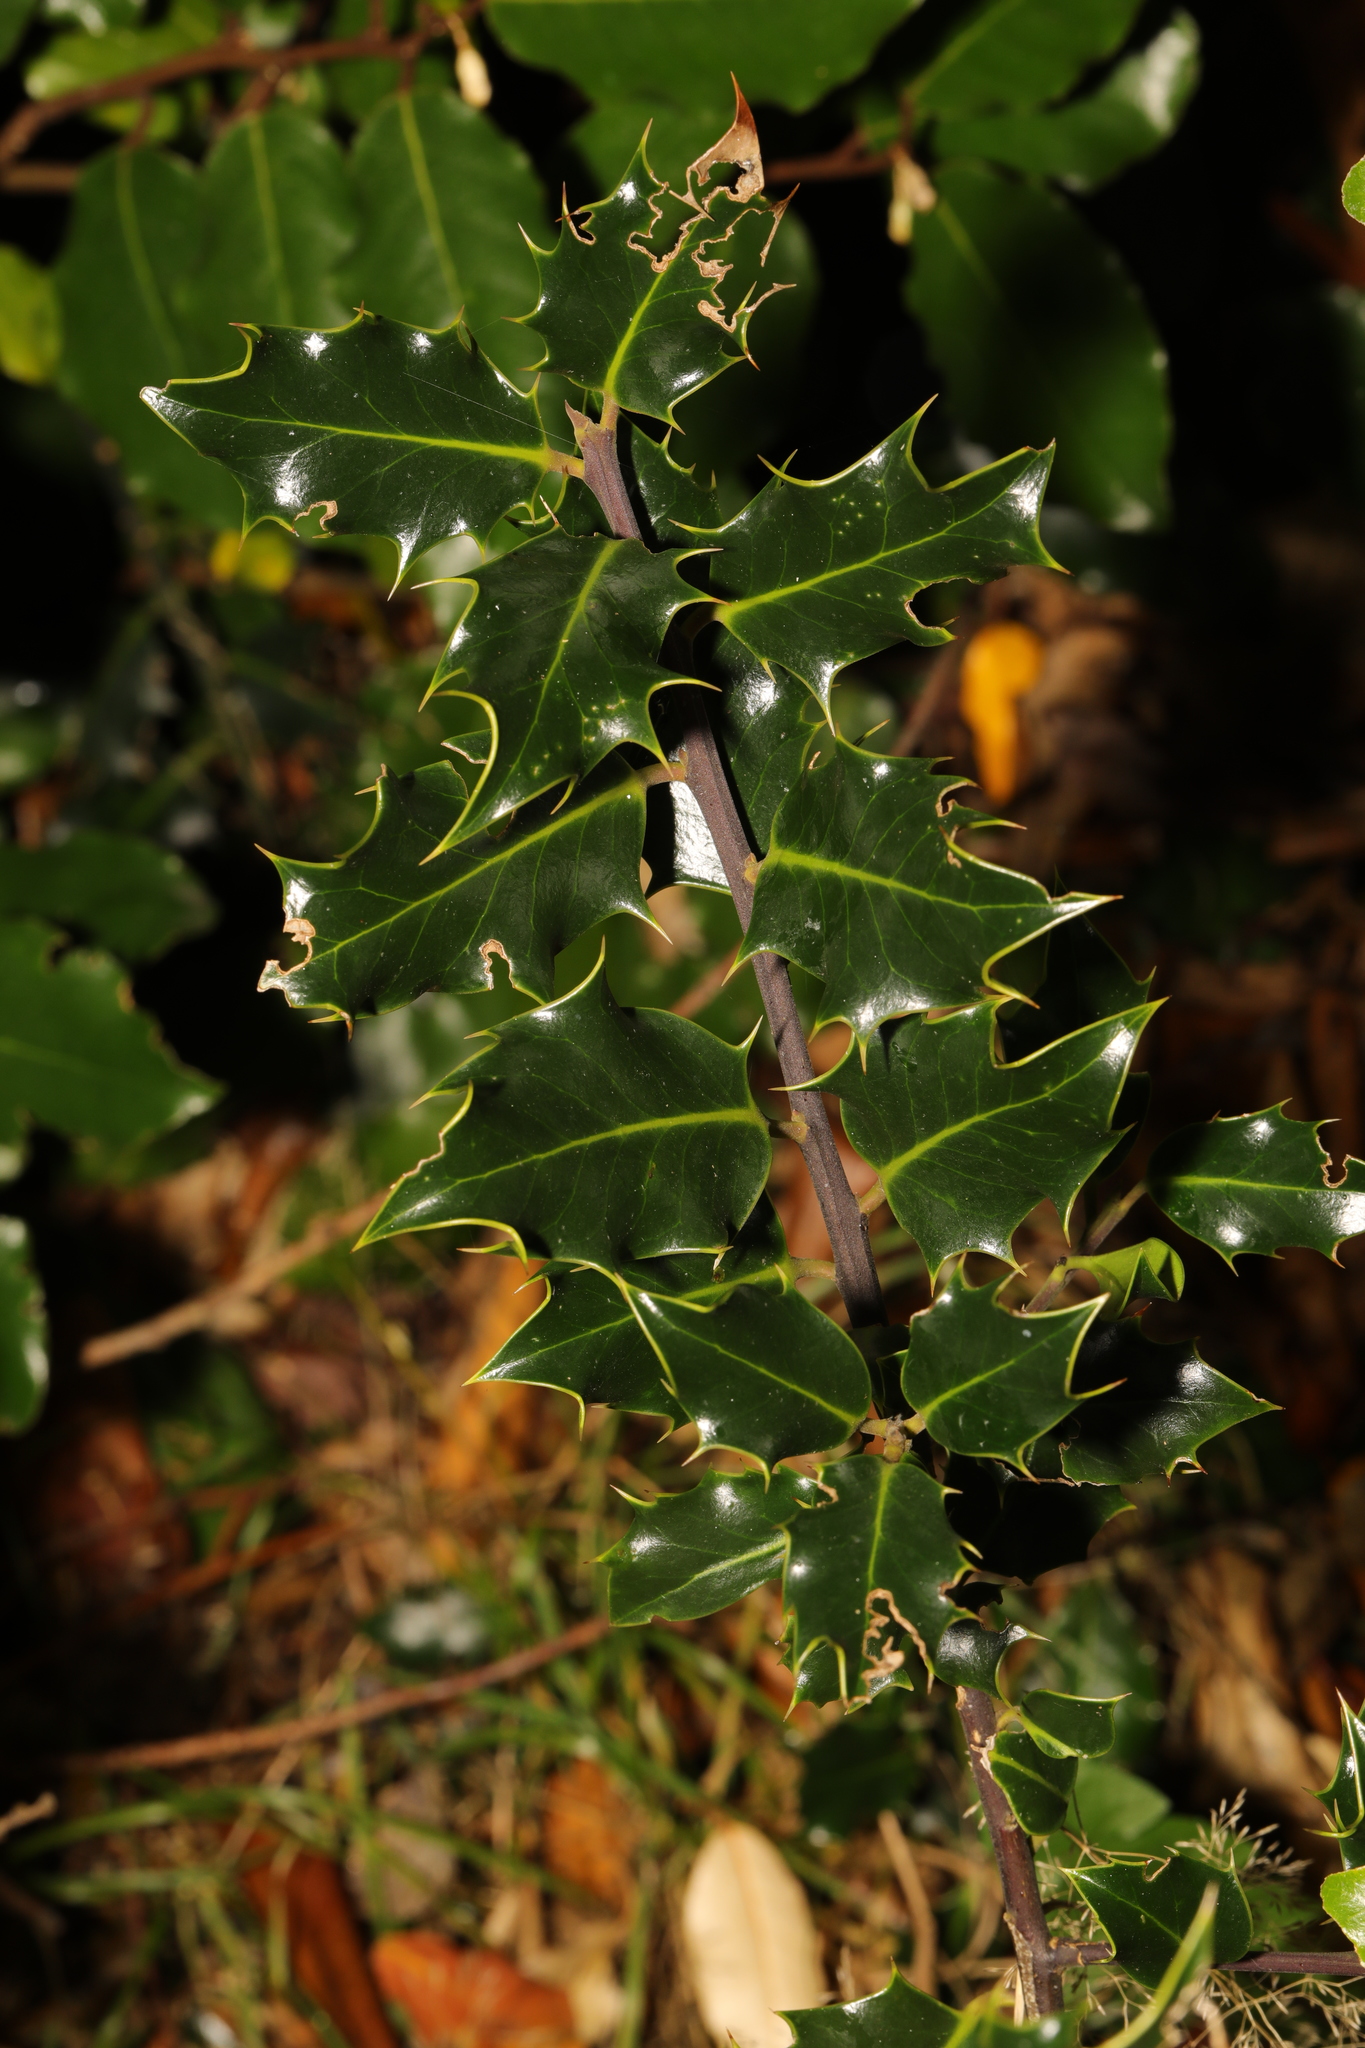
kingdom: Plantae
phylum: Tracheophyta
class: Magnoliopsida
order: Aquifoliales
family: Aquifoliaceae
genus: Ilex
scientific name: Ilex aquifolium
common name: English holly
